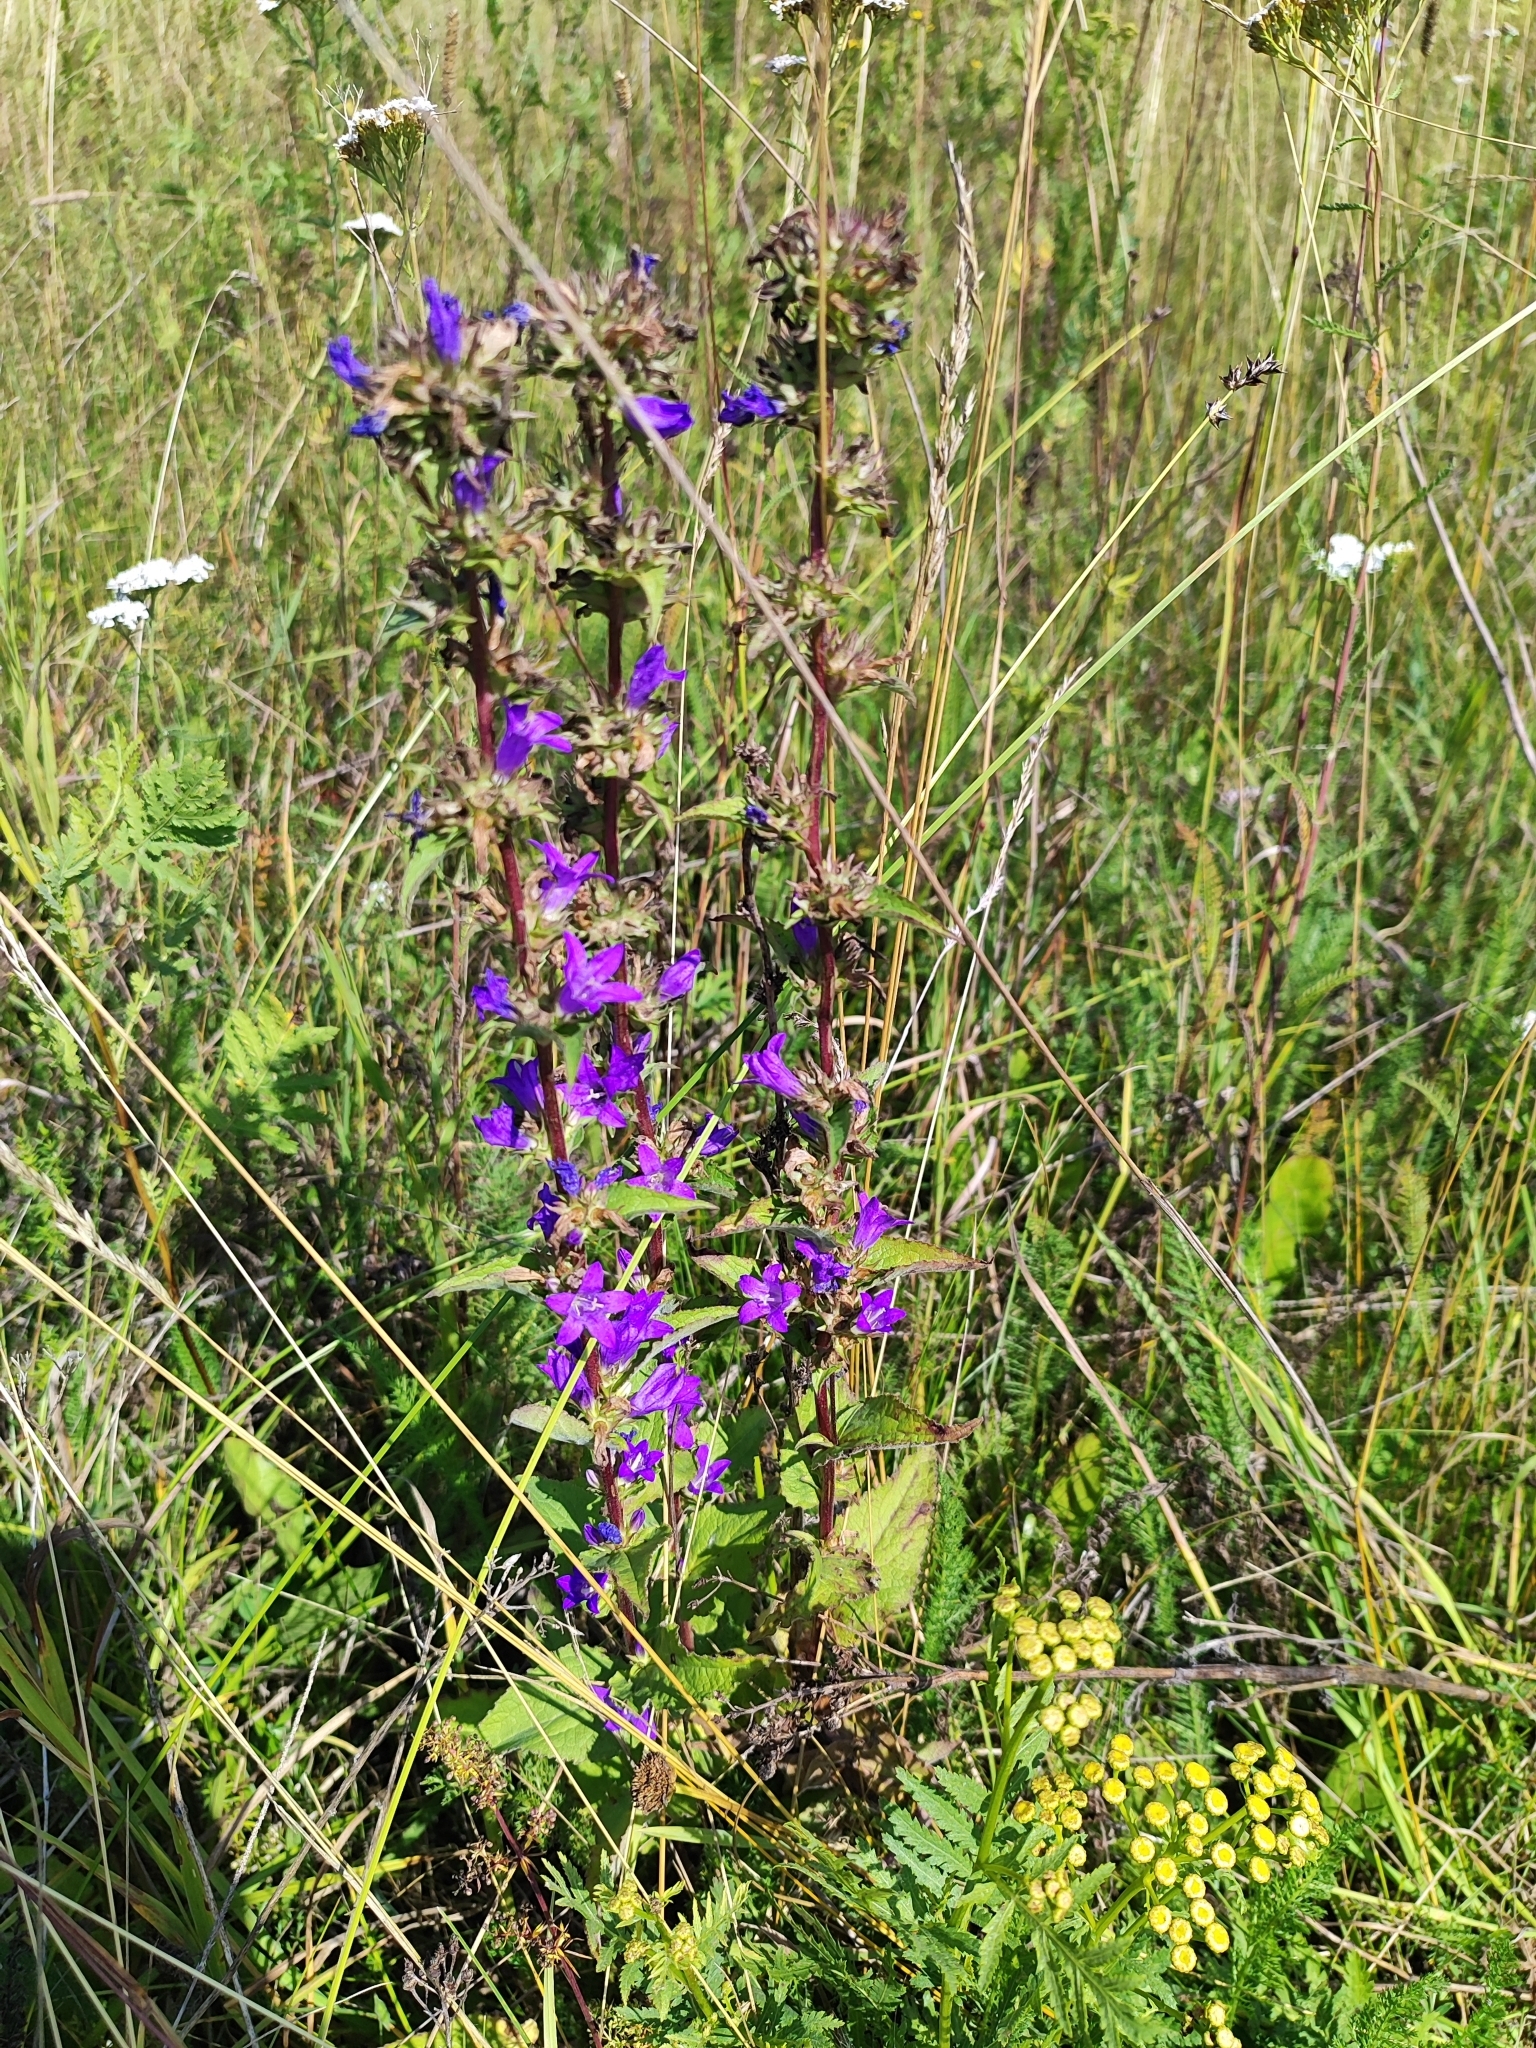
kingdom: Plantae
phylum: Tracheophyta
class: Magnoliopsida
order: Asterales
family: Campanulaceae
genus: Campanula
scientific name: Campanula glomerata
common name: Clustered bellflower
